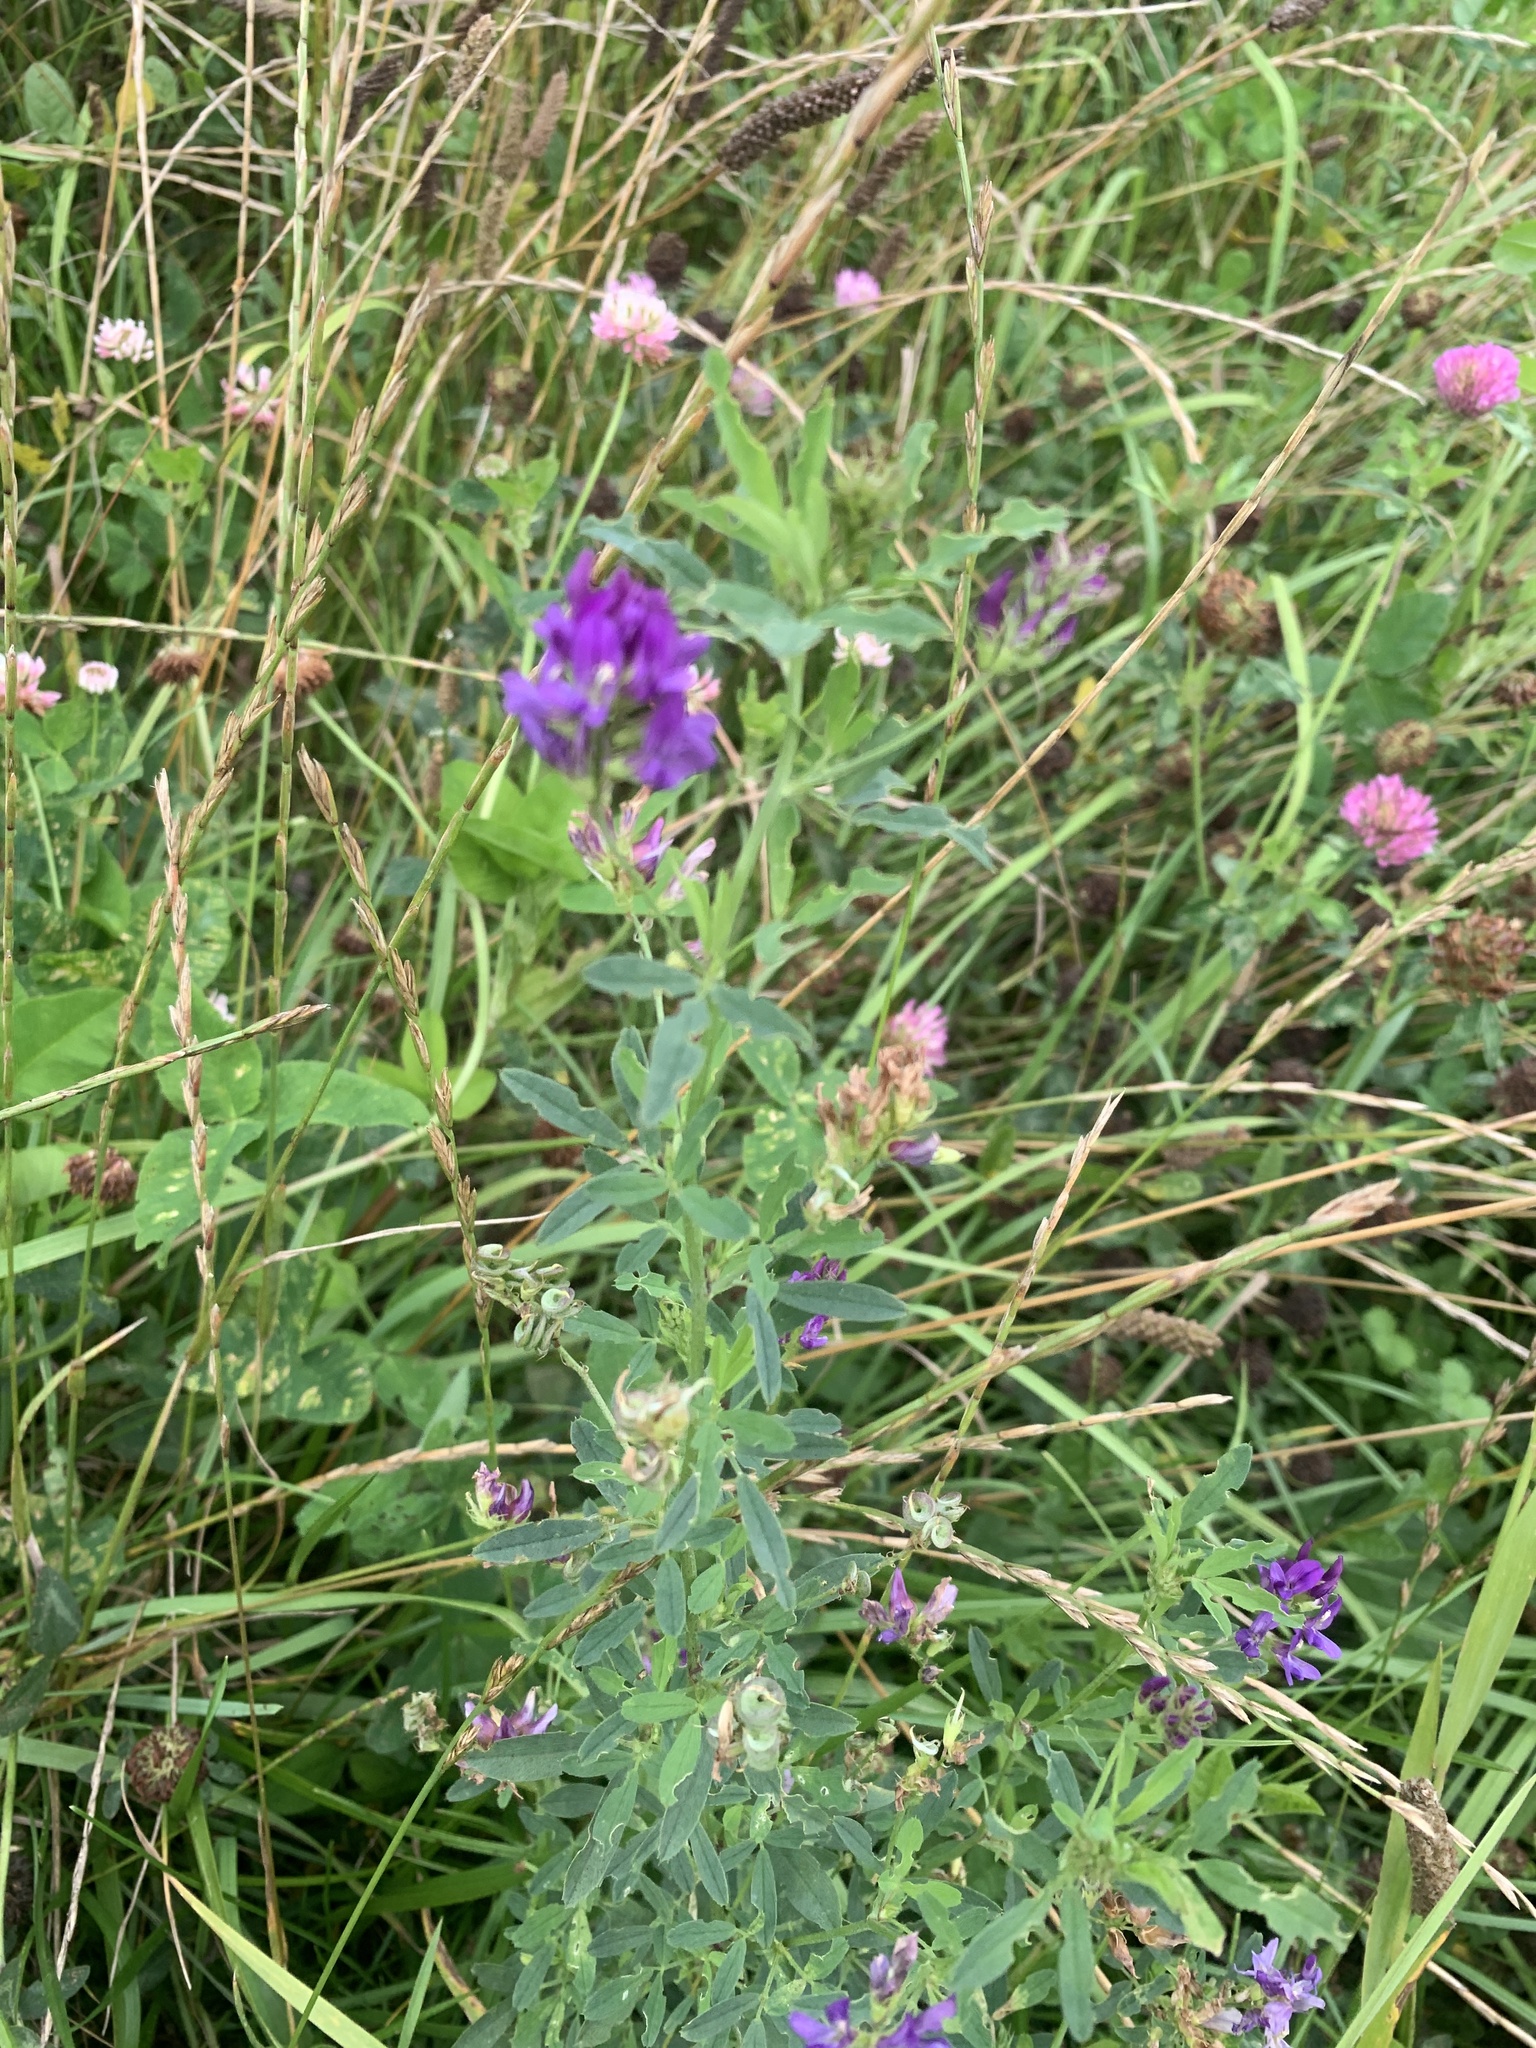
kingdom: Plantae
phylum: Tracheophyta
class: Magnoliopsida
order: Fabales
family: Fabaceae
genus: Medicago
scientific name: Medicago sativa
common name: Alfalfa
